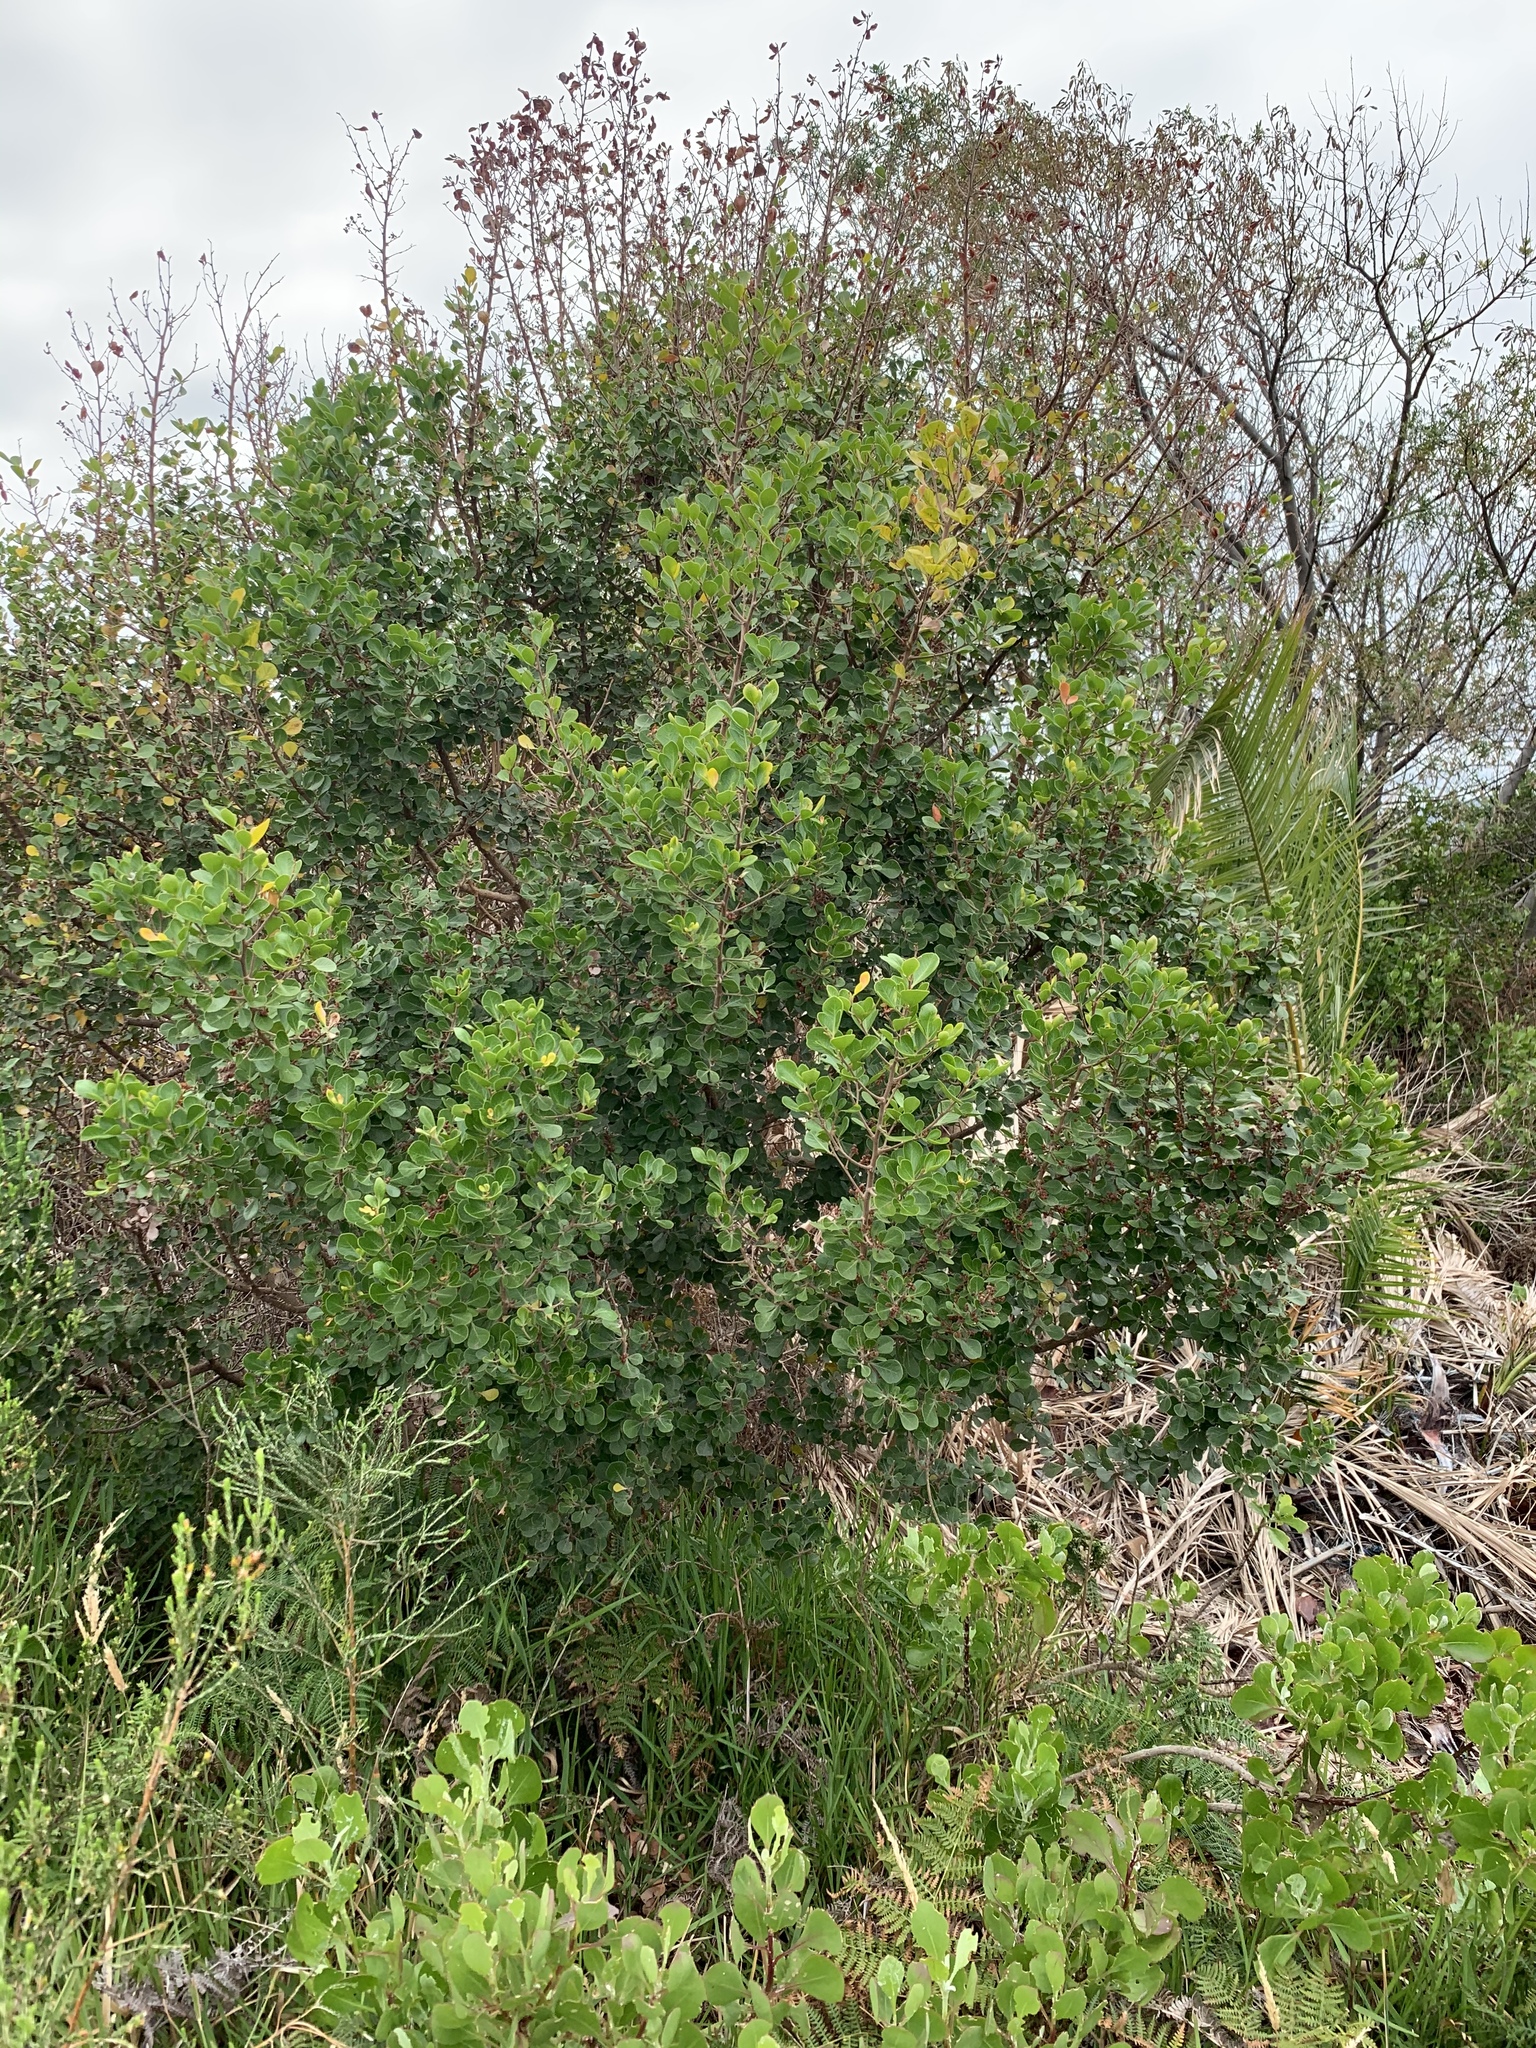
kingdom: Plantae
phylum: Tracheophyta
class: Magnoliopsida
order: Sapindales
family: Anacardiaceae
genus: Searsia
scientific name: Searsia lucida
